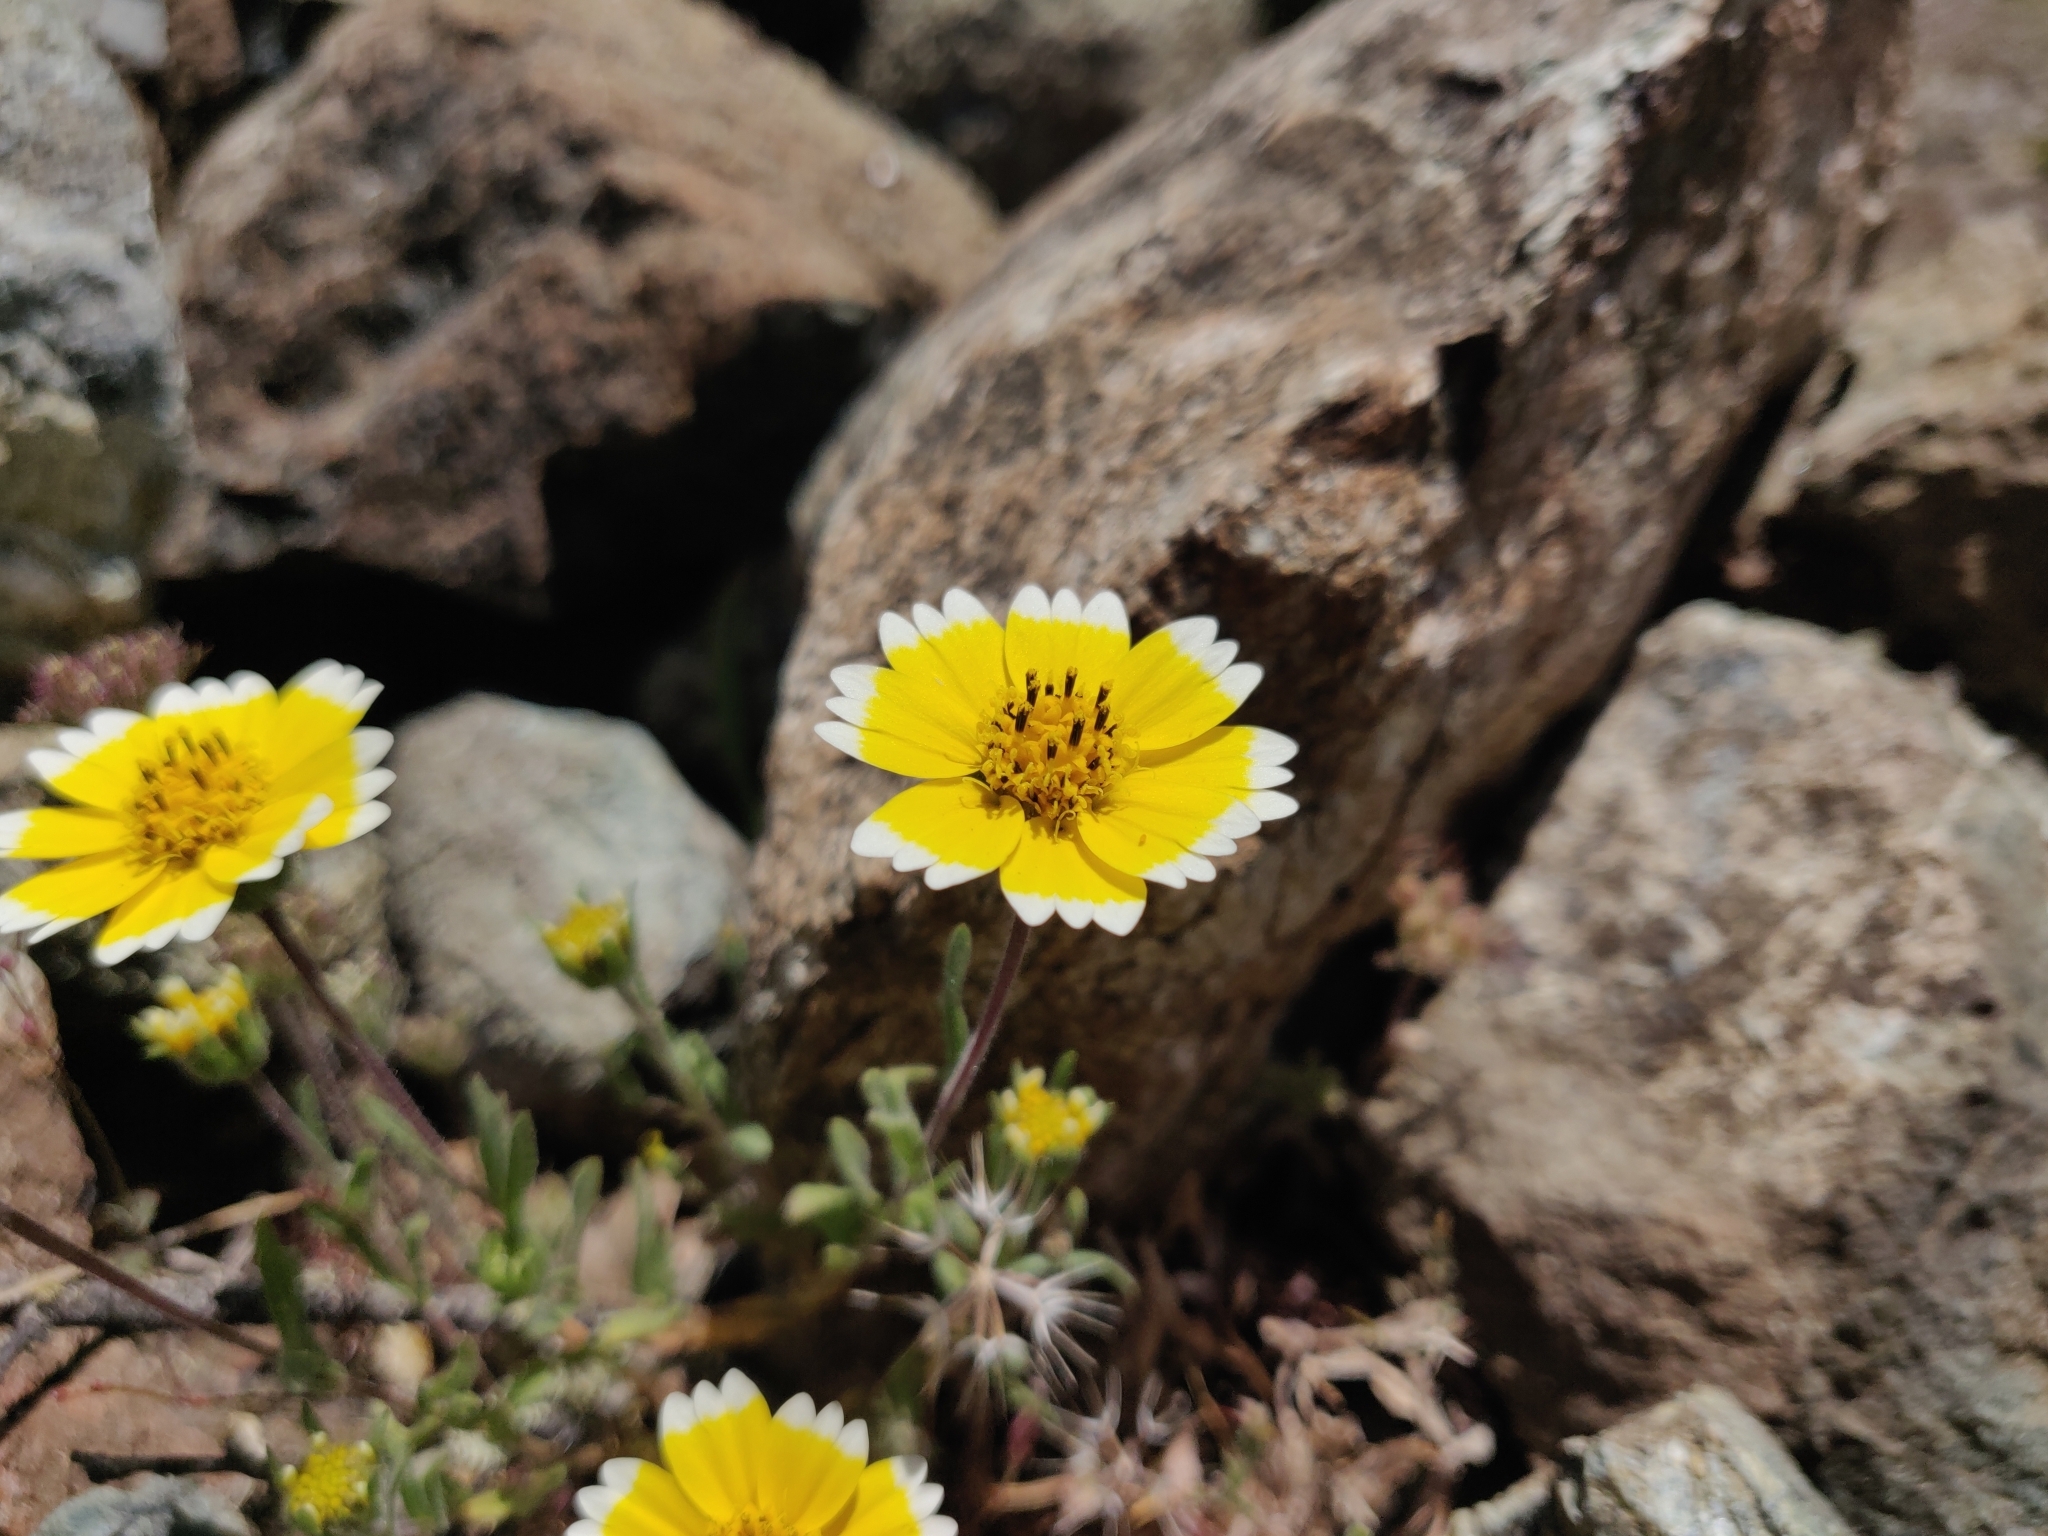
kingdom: Plantae
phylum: Tracheophyta
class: Magnoliopsida
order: Asterales
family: Asteraceae
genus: Layia
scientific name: Layia platyglossa
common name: Tidy-tips
